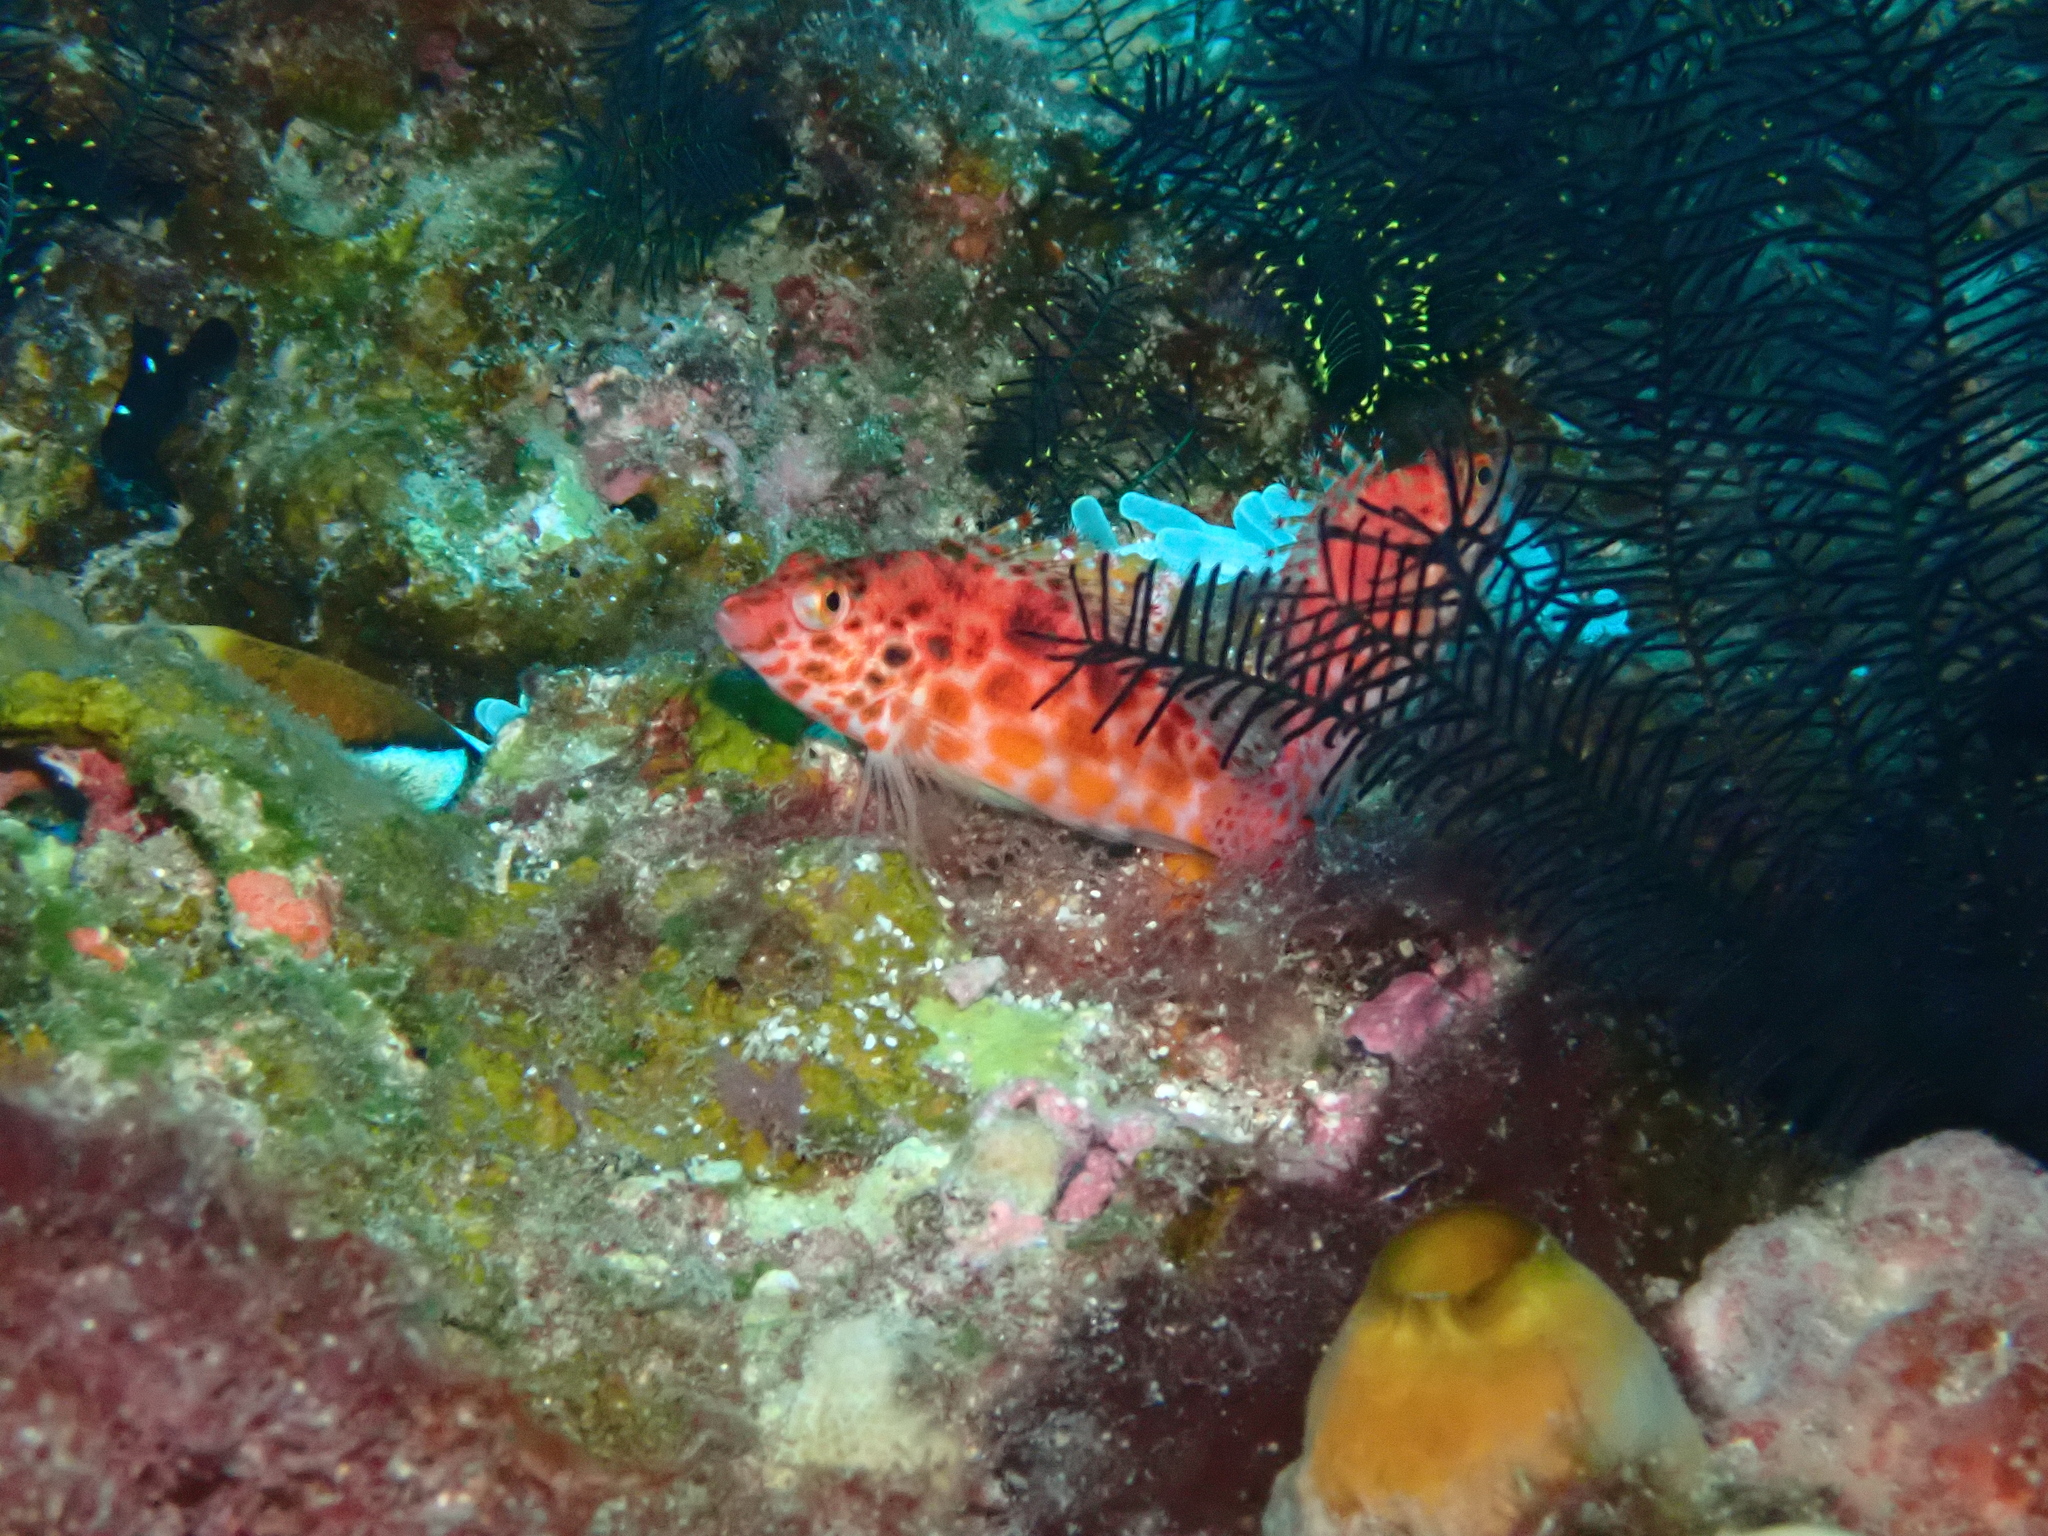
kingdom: Animalia
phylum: Chordata
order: Perciformes
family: Cirrhitidae
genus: Cirrhitichthys
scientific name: Cirrhitichthys oxycephalus
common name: Spotted hawkfish
